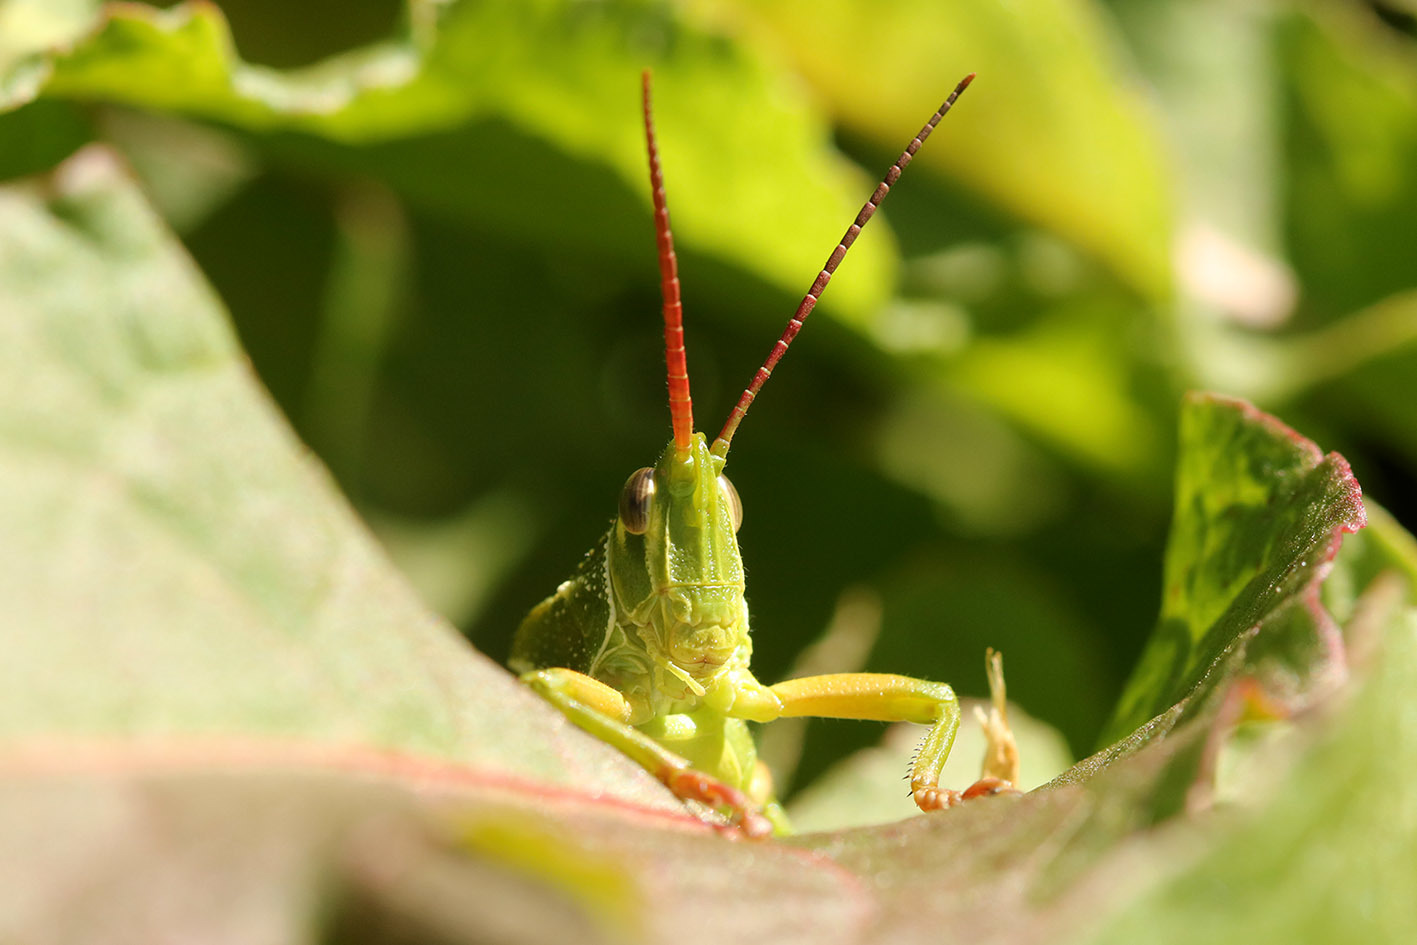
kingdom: Animalia
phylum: Arthropoda
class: Insecta
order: Orthoptera
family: Romaleidae
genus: Staleochlora
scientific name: Staleochlora viridicata
